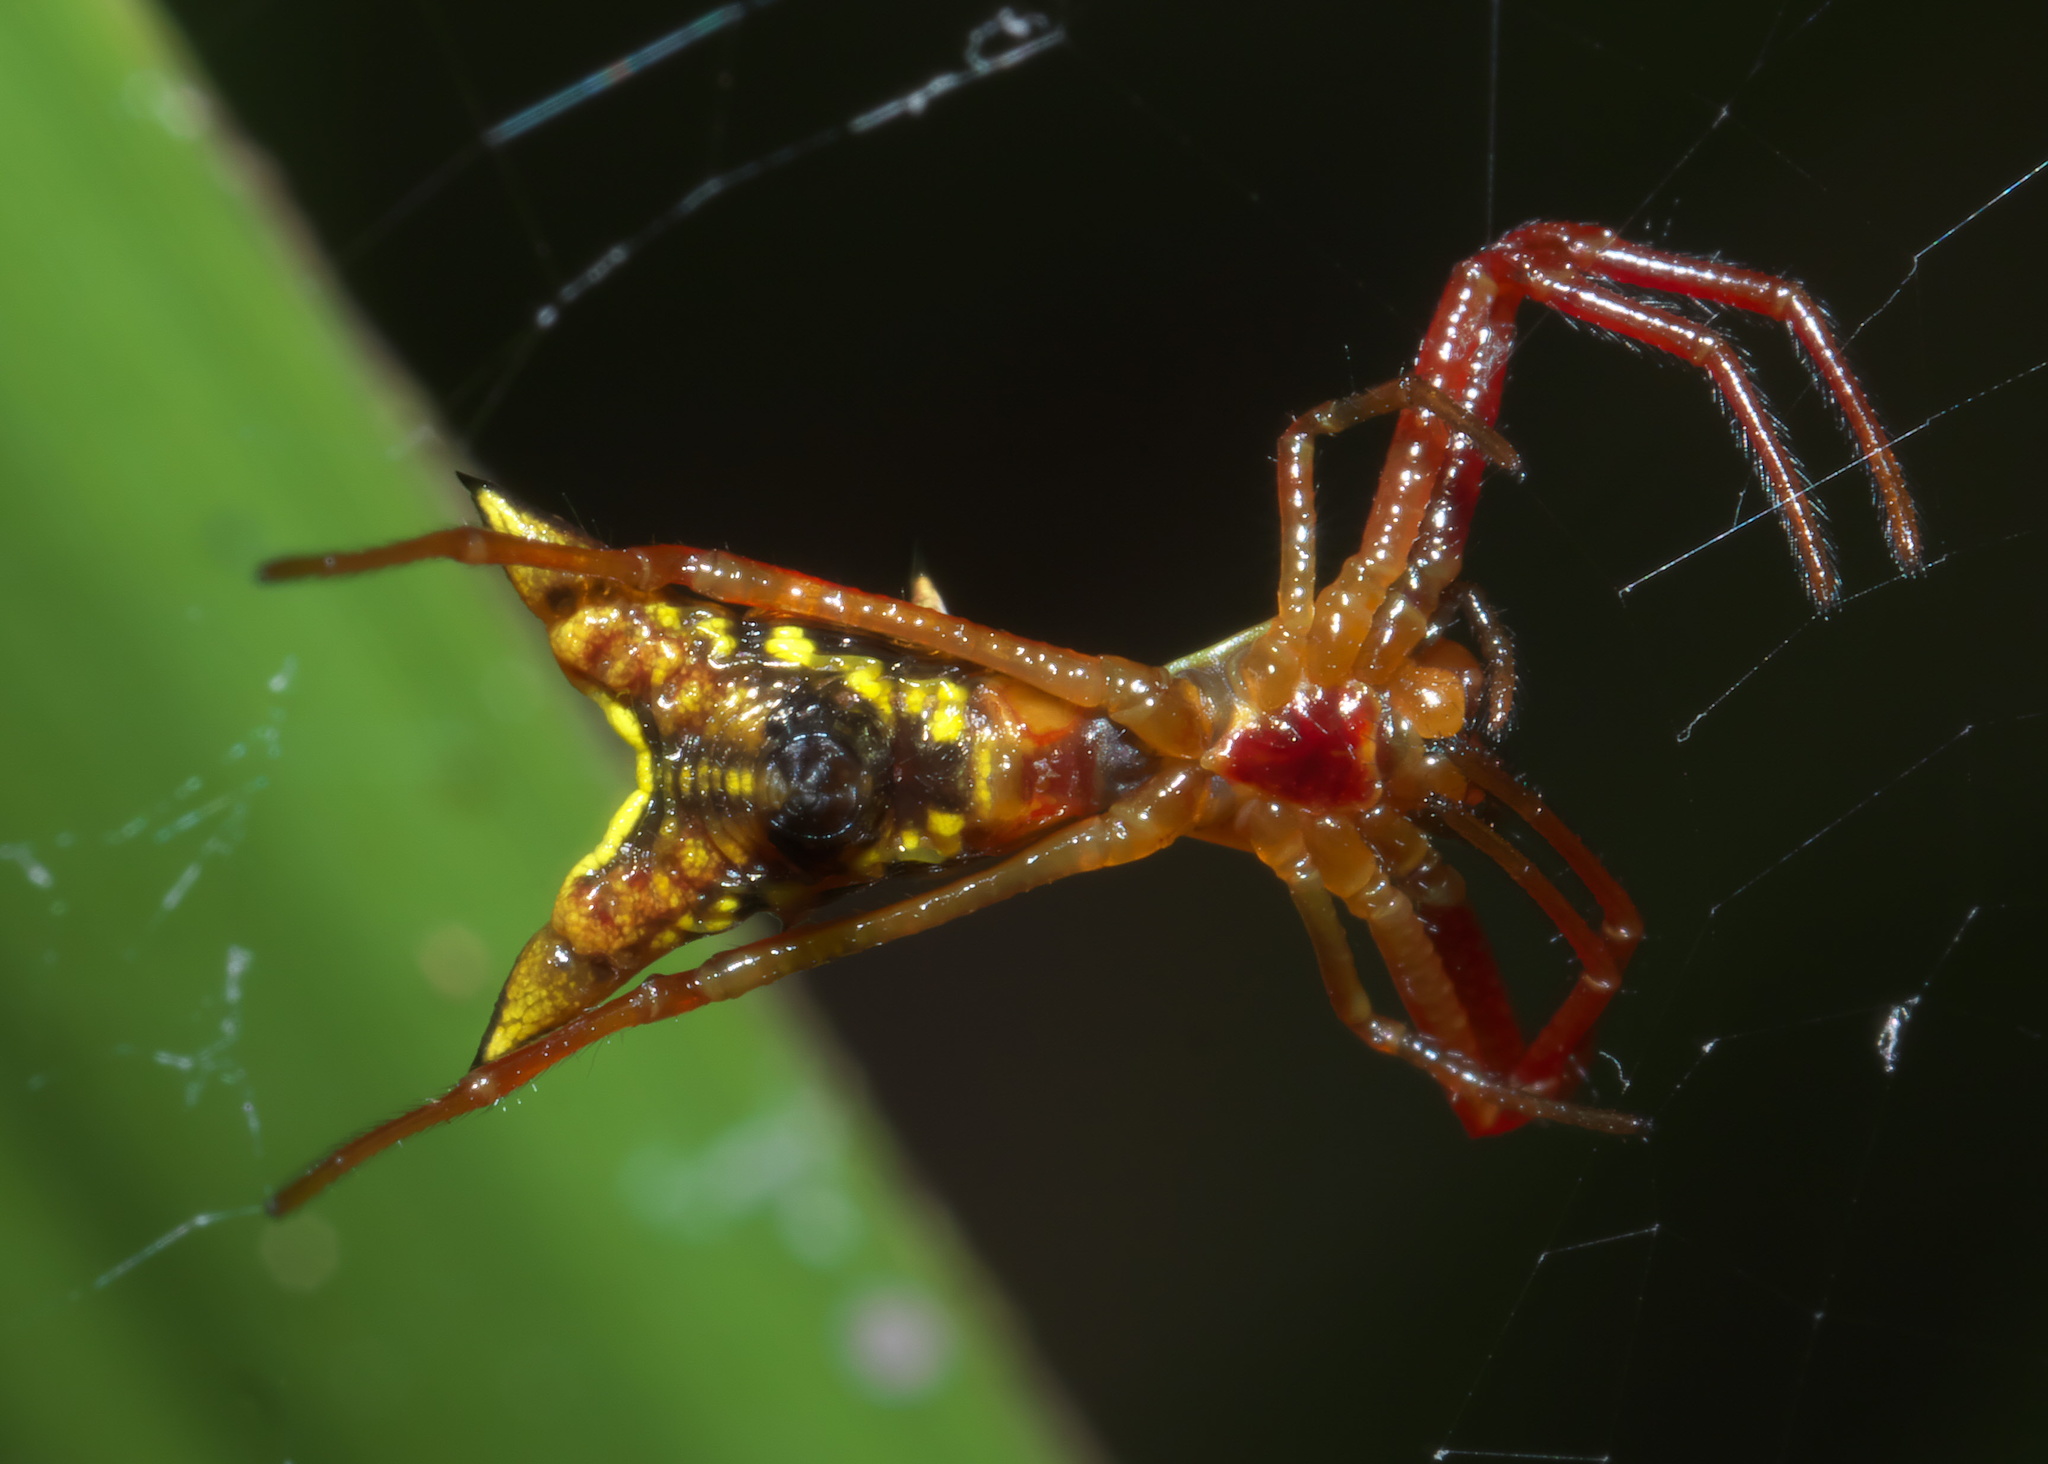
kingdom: Animalia
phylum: Arthropoda
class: Arachnida
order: Araneae
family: Araneidae
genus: Micrathena
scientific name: Micrathena sagittata
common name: Orb weavers
